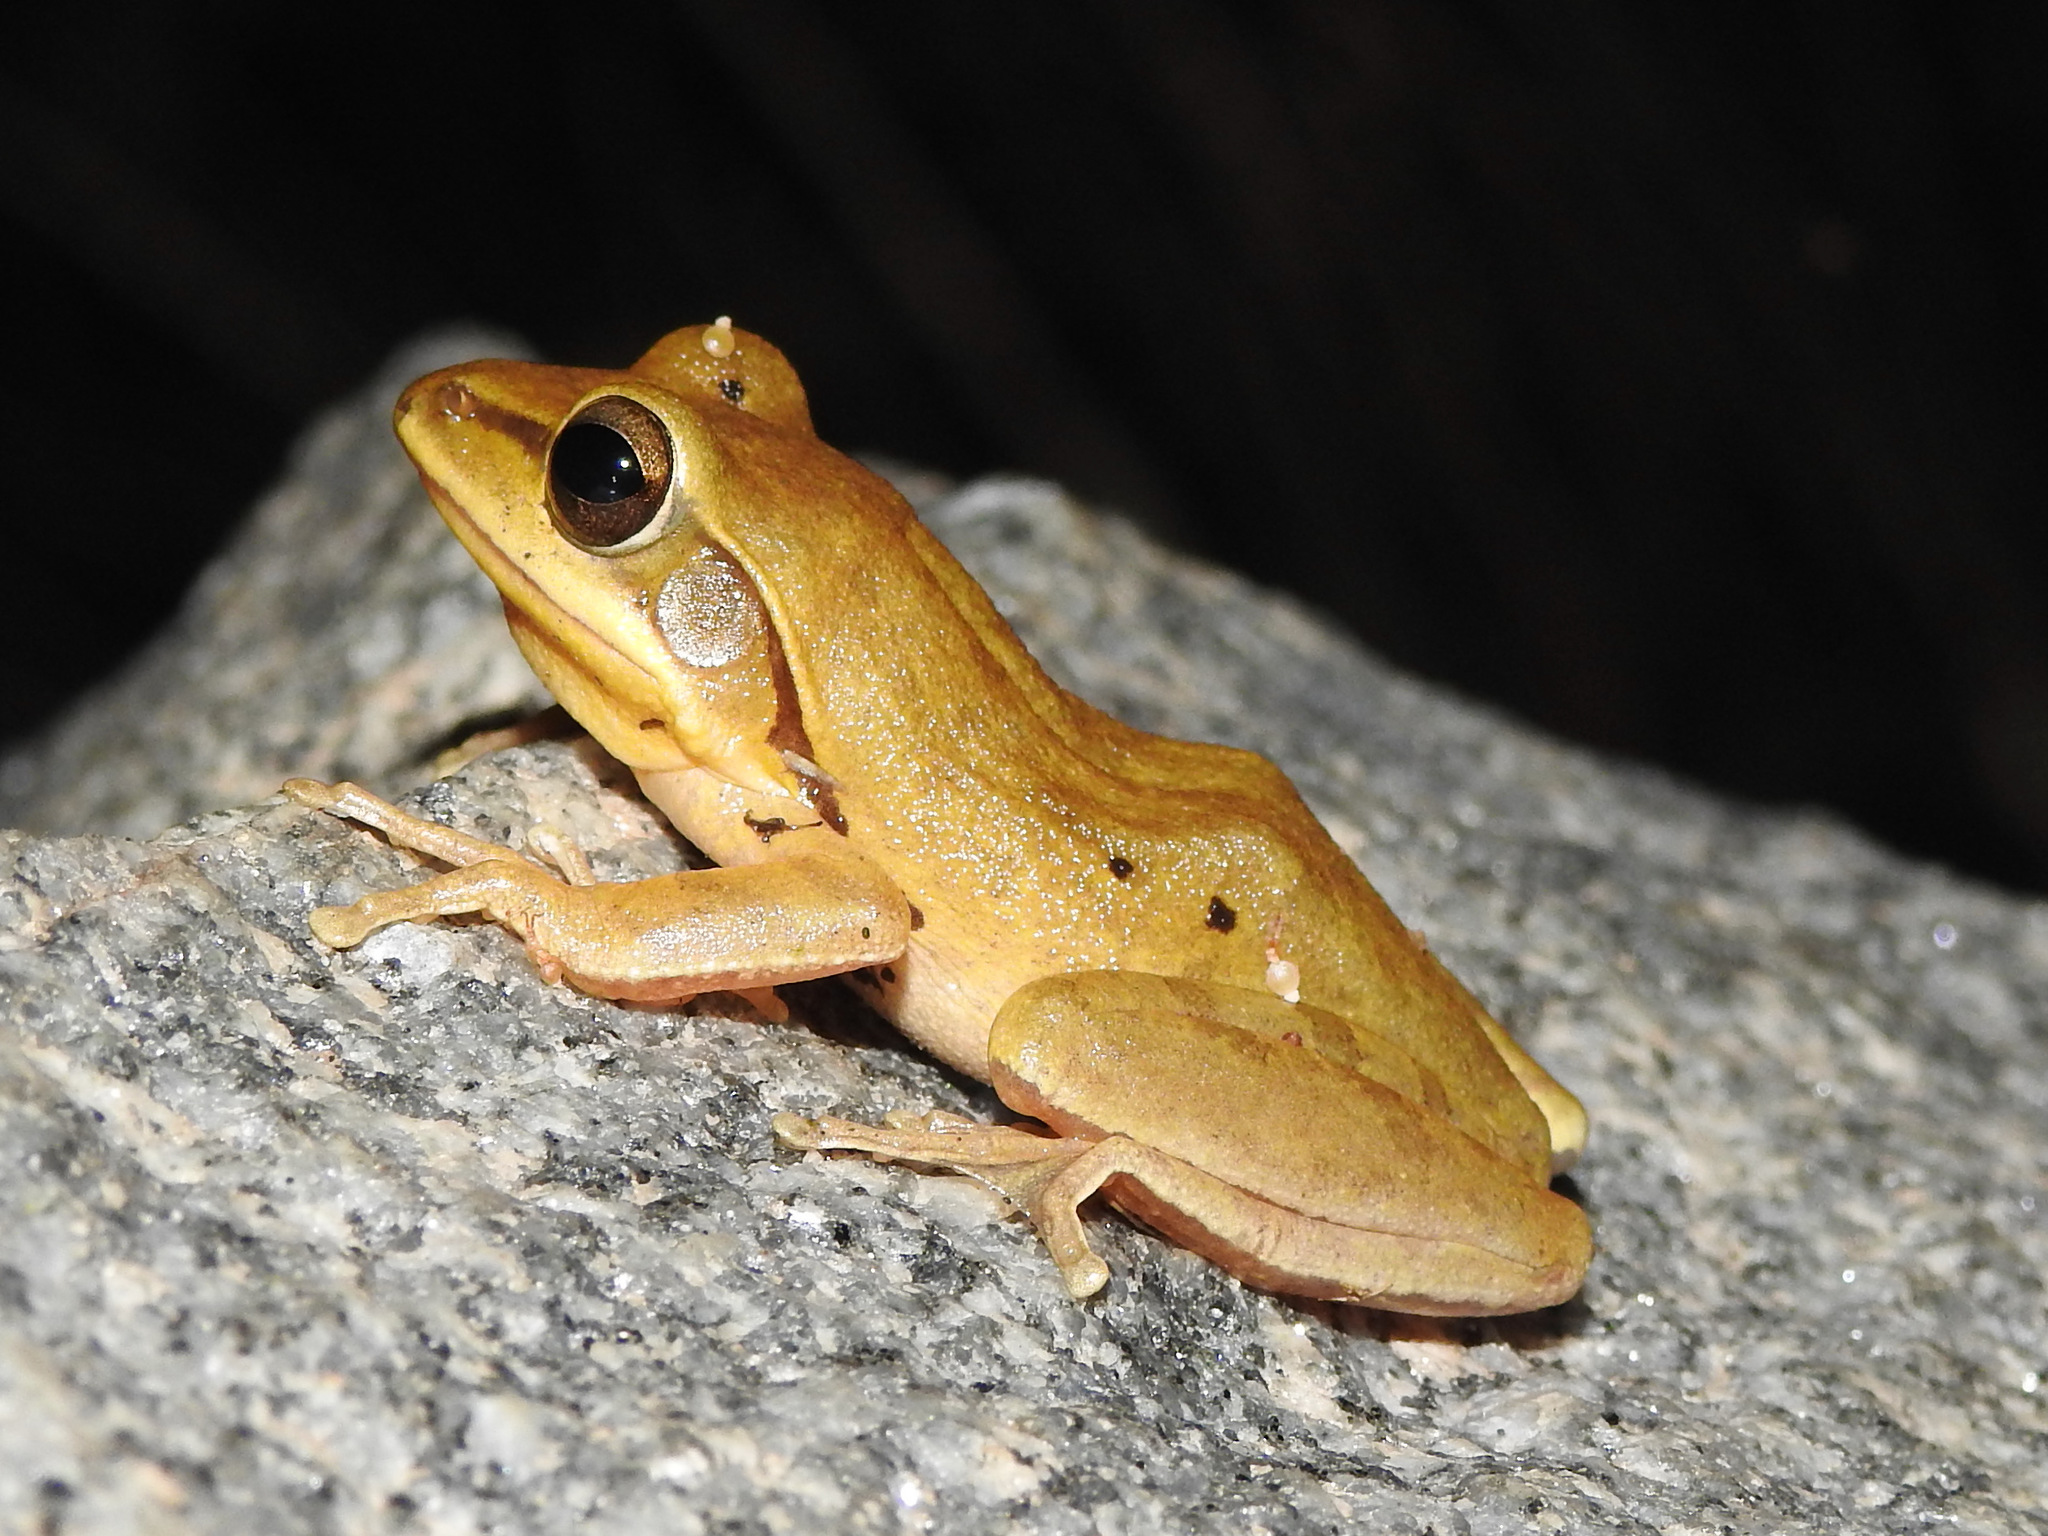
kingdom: Animalia
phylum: Chordata
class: Amphibia
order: Anura
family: Rhacophoridae
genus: Polypedates
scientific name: Polypedates maculatus
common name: Himalayan tree frog
